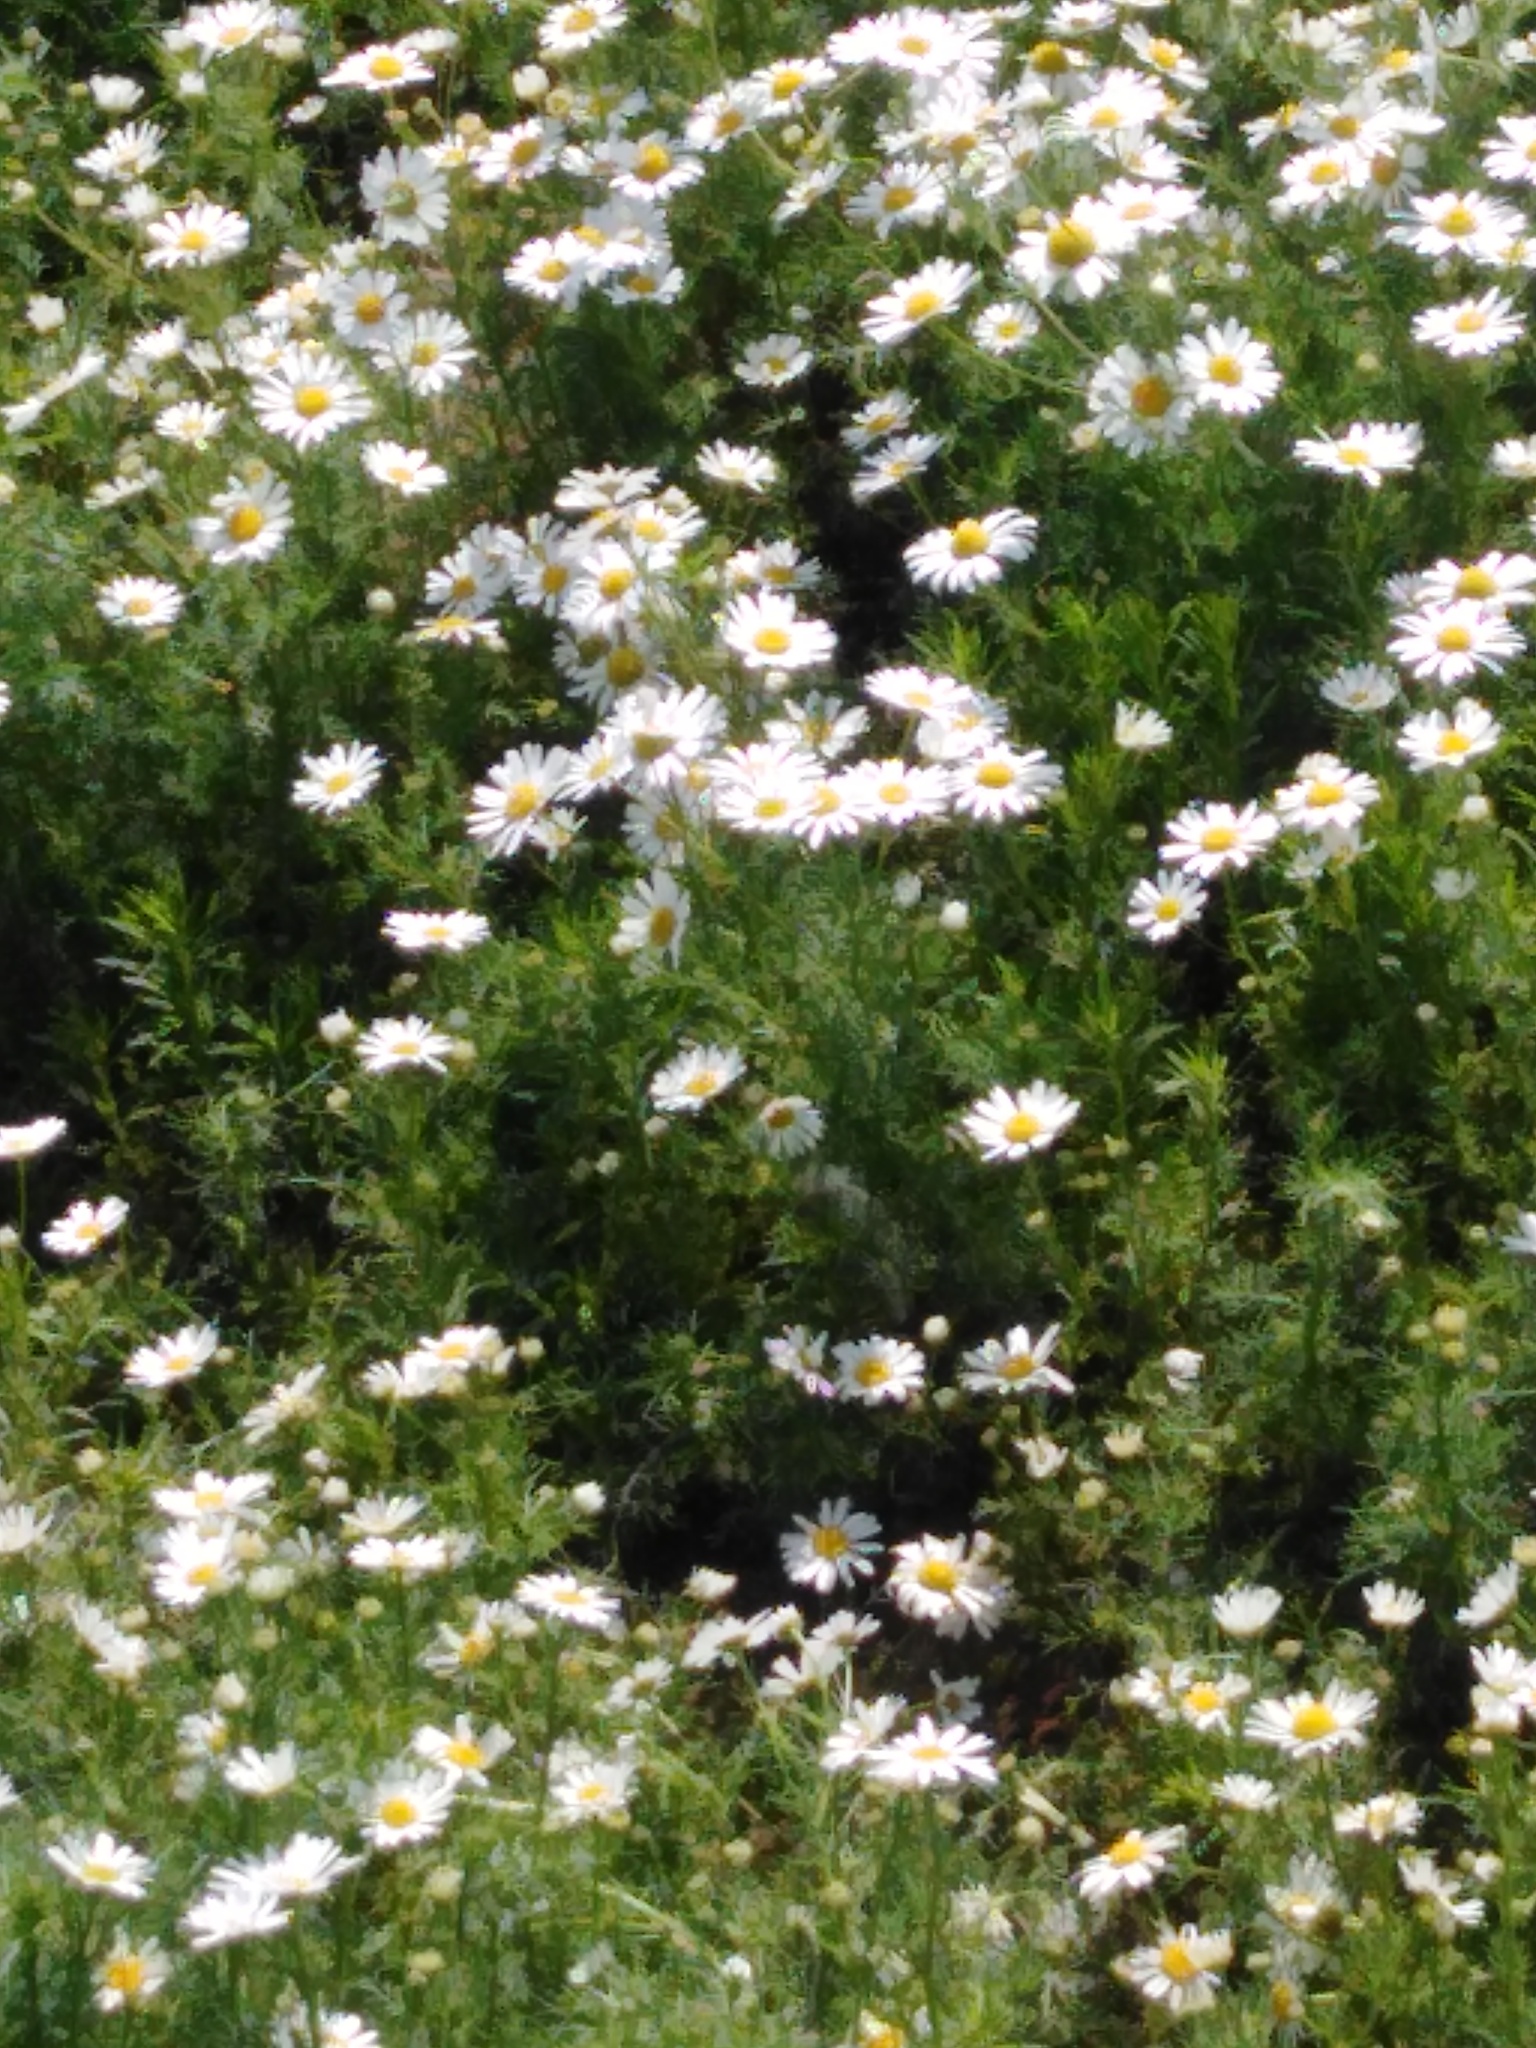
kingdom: Plantae
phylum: Tracheophyta
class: Magnoliopsida
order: Asterales
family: Asteraceae
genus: Tripleurospermum
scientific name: Tripleurospermum inodorum
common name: Scentless mayweed
